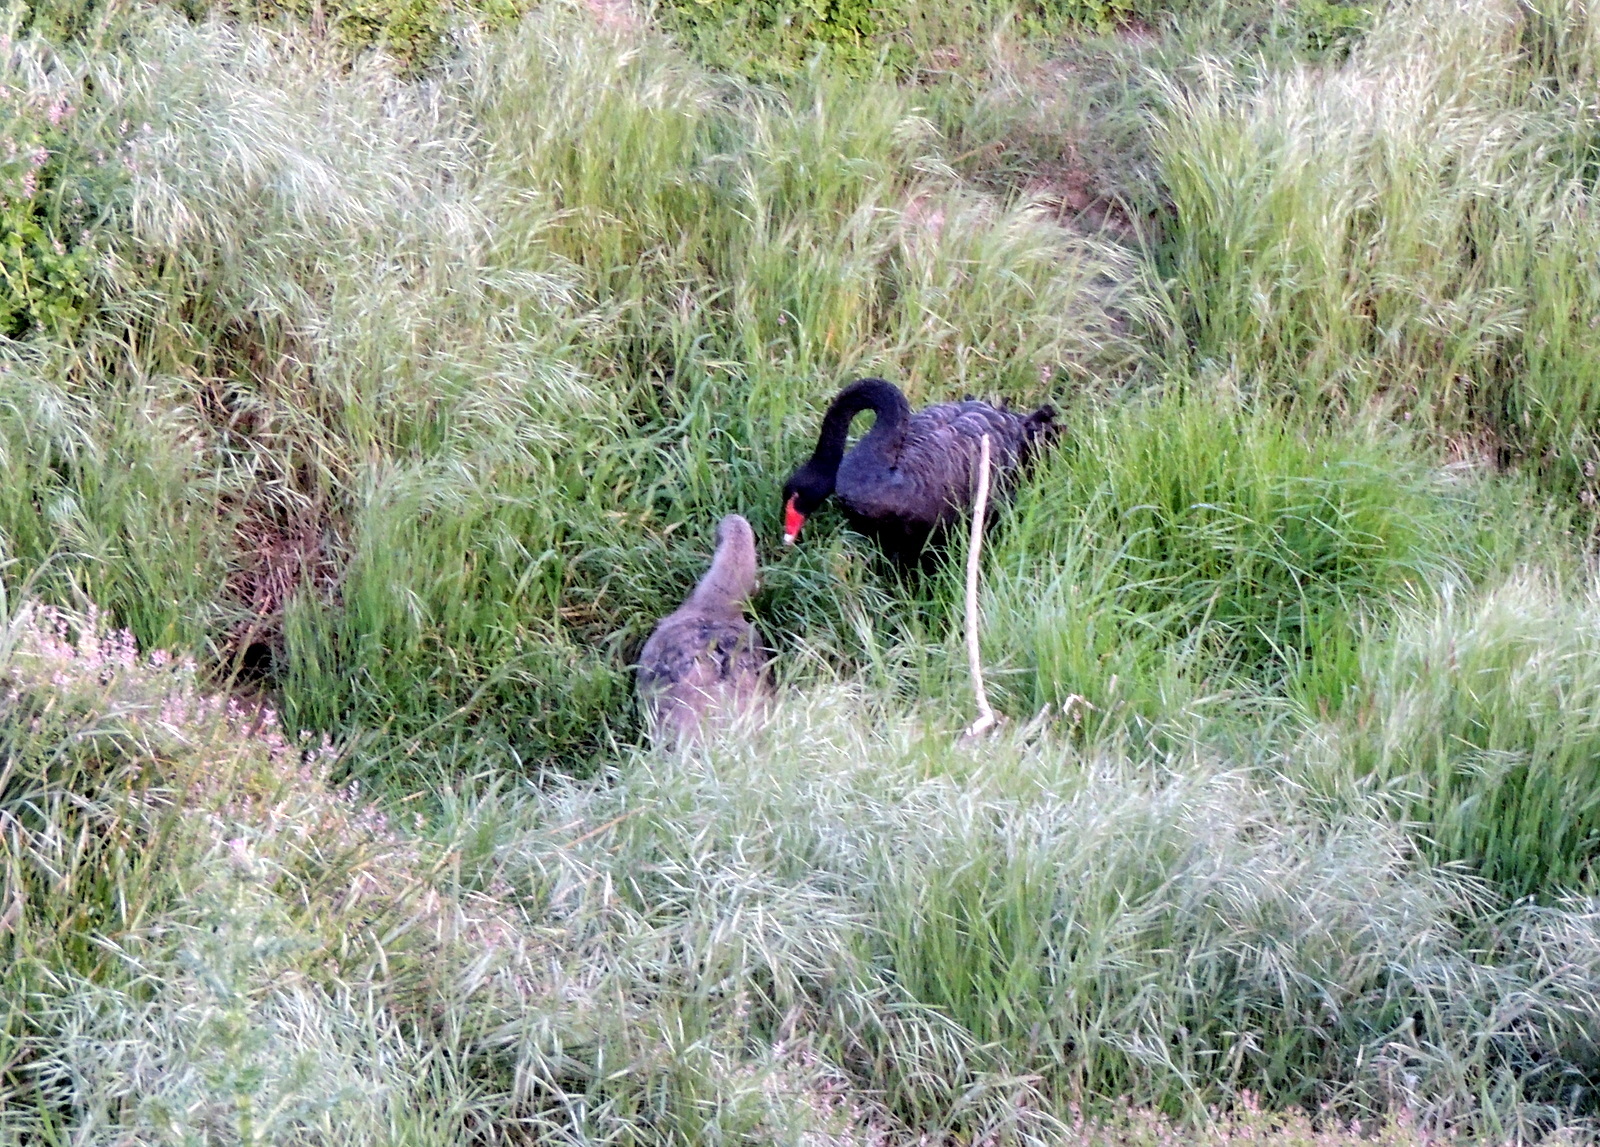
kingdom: Animalia
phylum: Chordata
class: Aves
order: Anseriformes
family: Anatidae
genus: Cygnus
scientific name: Cygnus atratus
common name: Black swan
